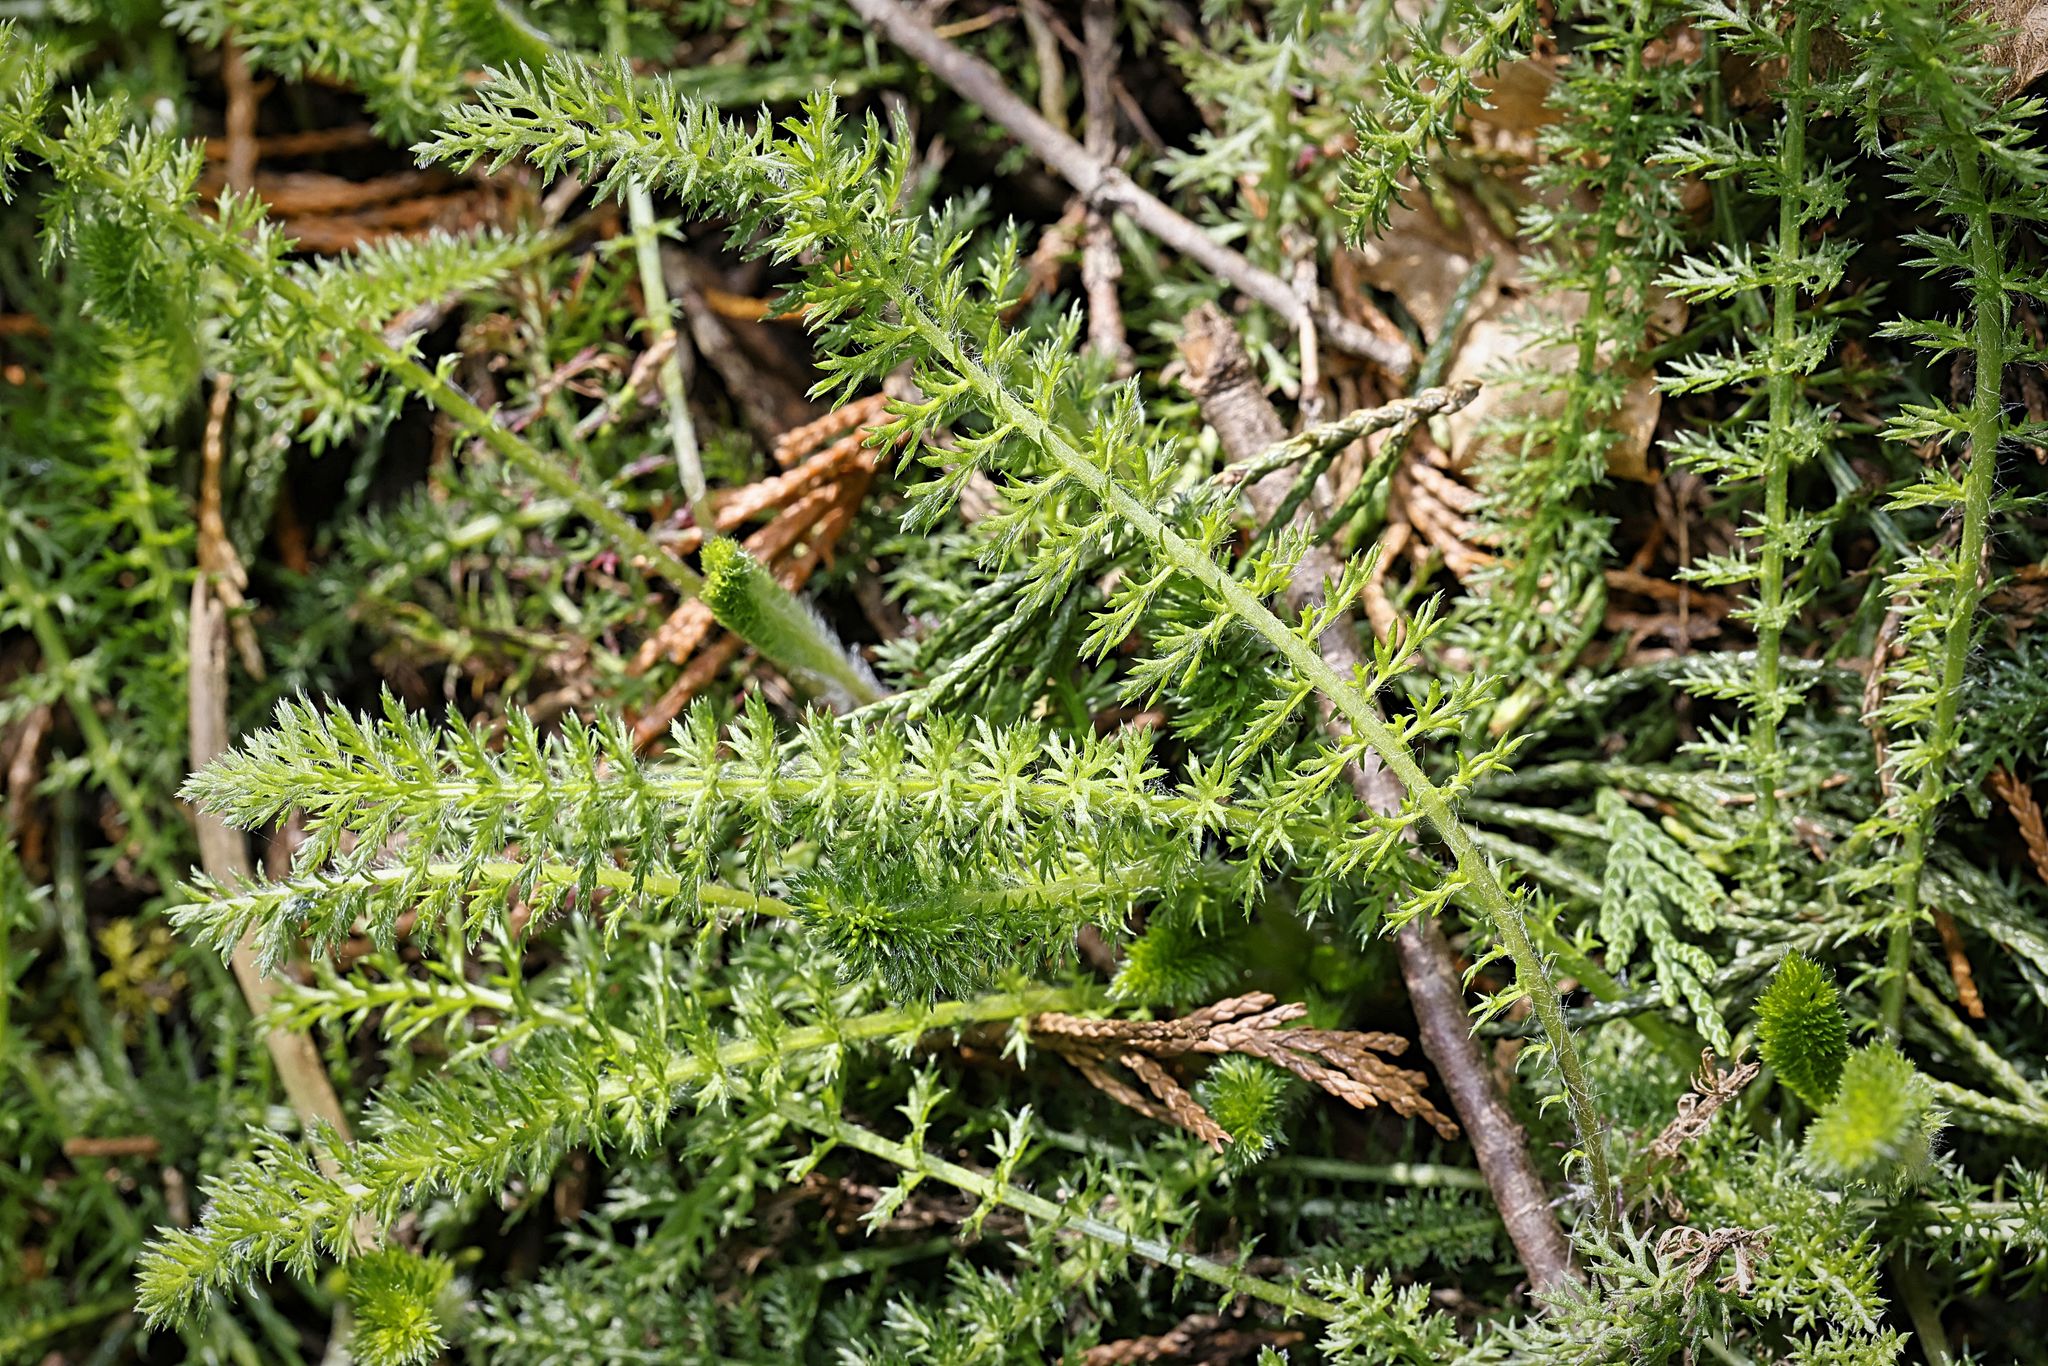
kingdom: Plantae
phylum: Tracheophyta
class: Magnoliopsida
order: Asterales
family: Asteraceae
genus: Achillea
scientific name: Achillea millefolium
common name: Yarrow
